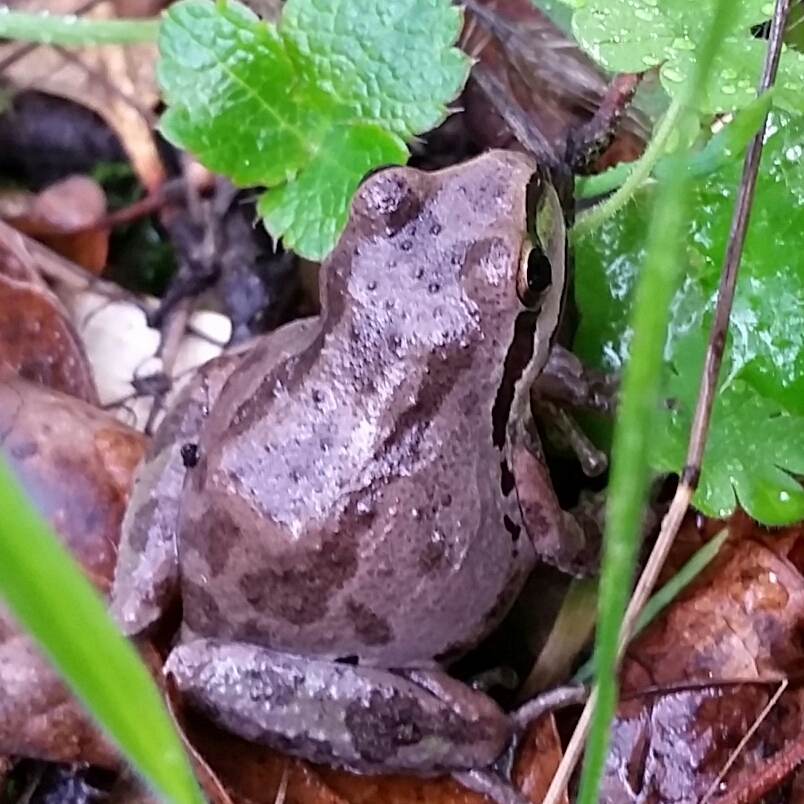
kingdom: Animalia
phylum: Chordata
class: Amphibia
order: Anura
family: Hylidae
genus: Pseudacris
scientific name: Pseudacris regilla
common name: Pacific chorus frog
